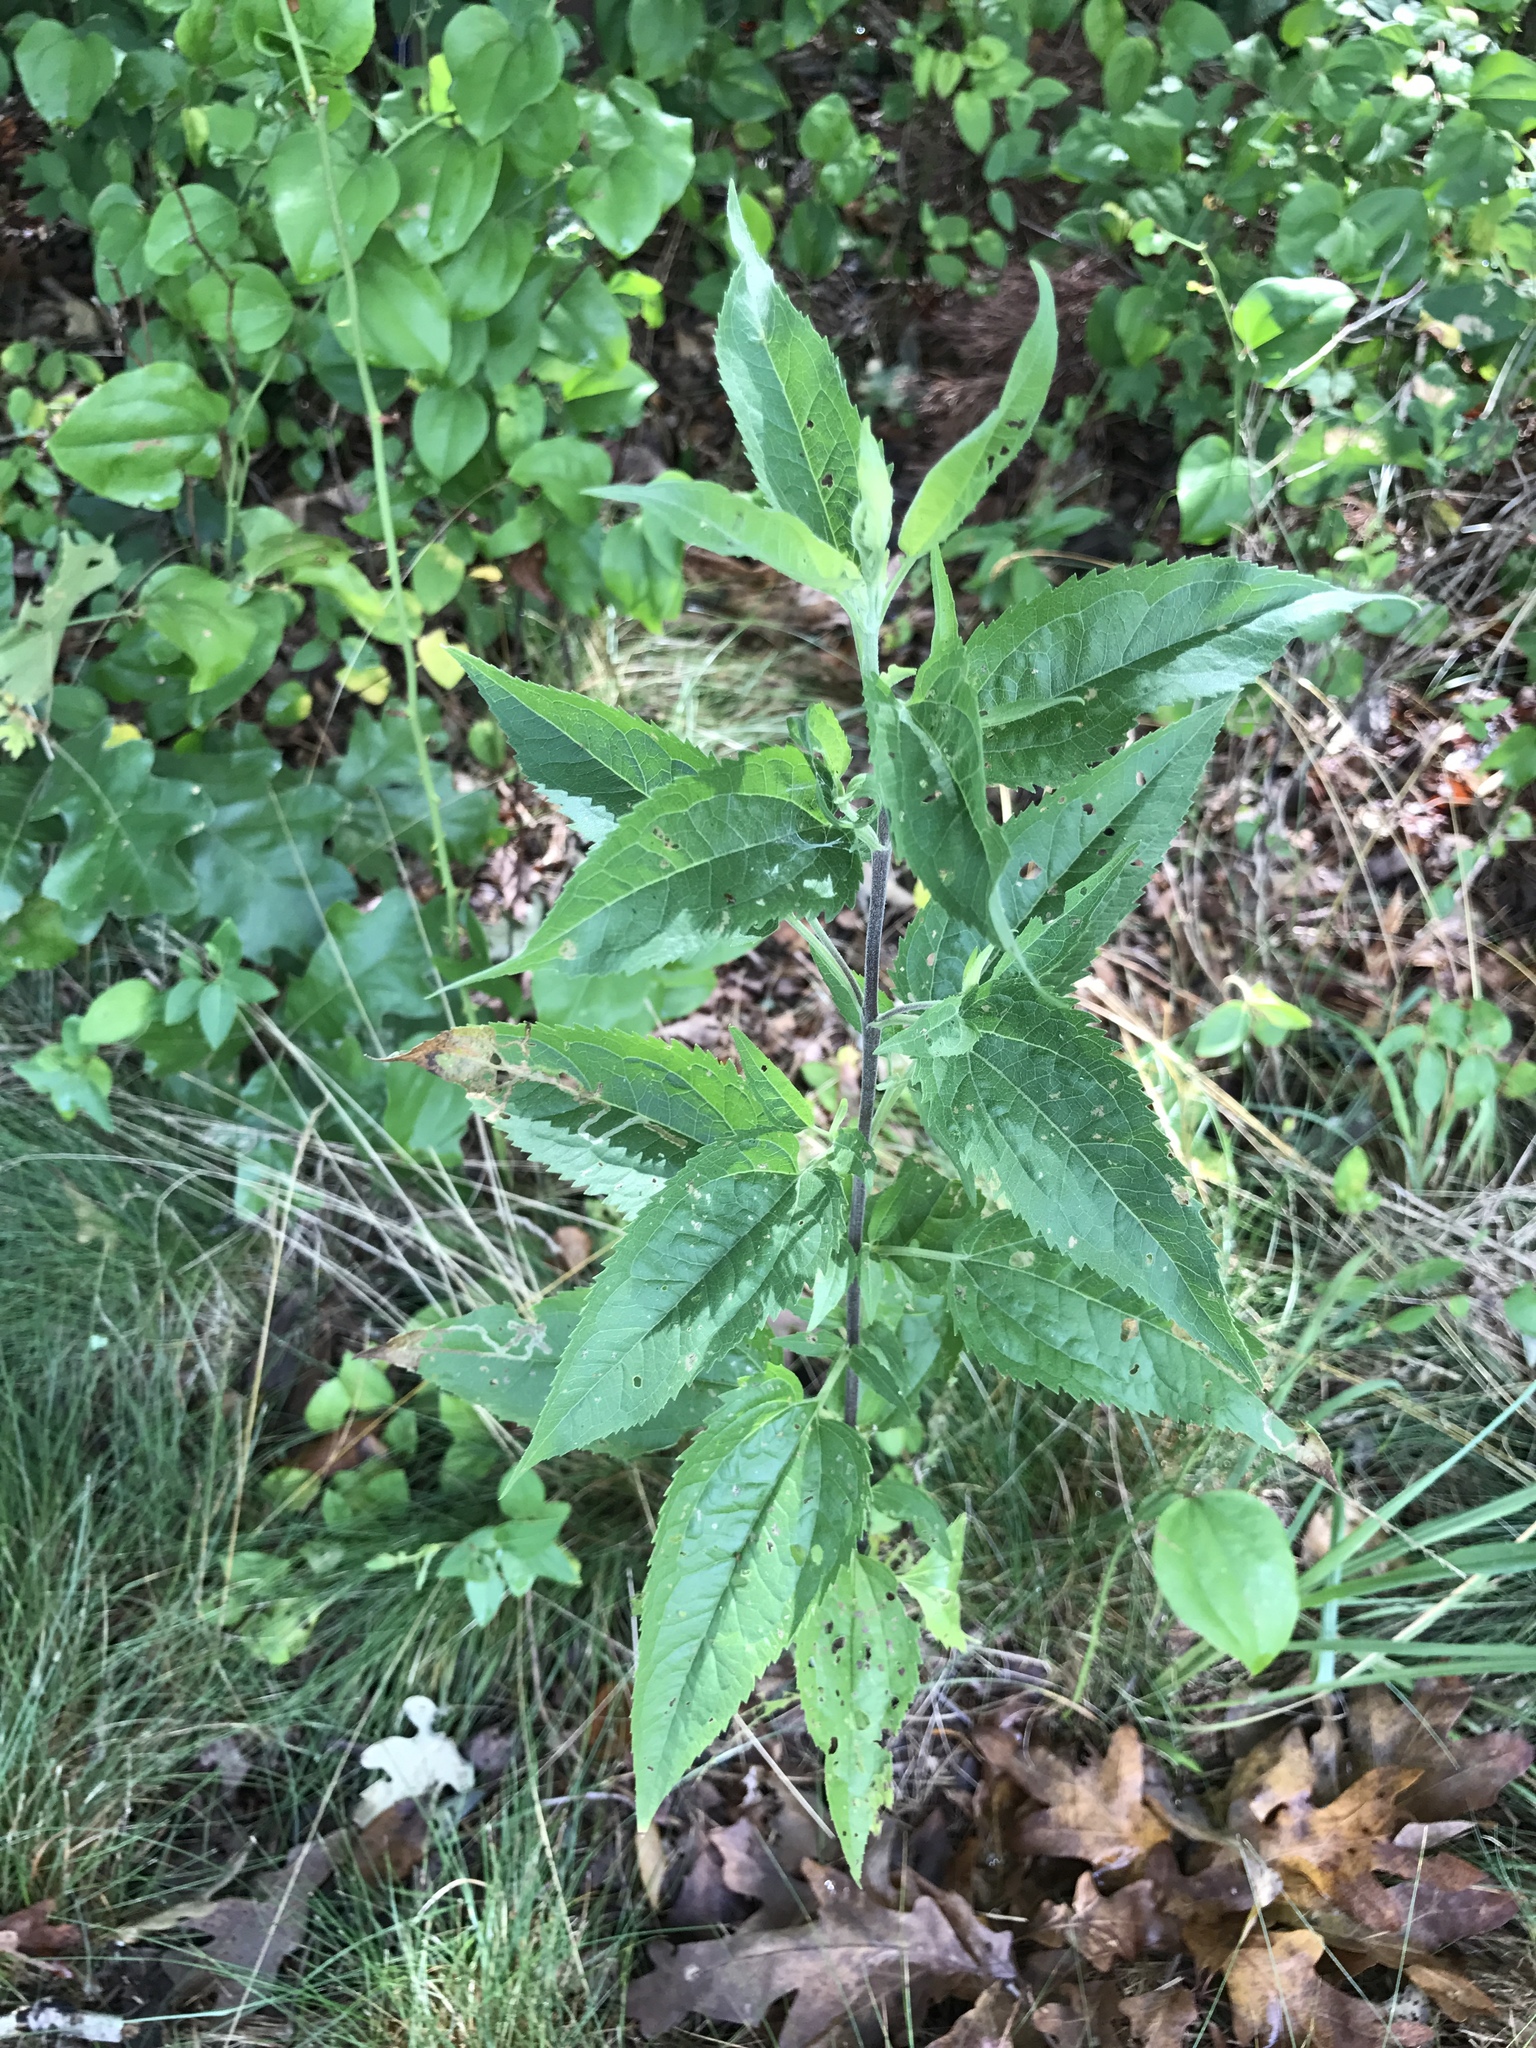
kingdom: Plantae
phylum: Tracheophyta
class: Magnoliopsida
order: Asterales
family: Asteraceae
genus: Eupatorium
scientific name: Eupatorium serotinum
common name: Late boneset
